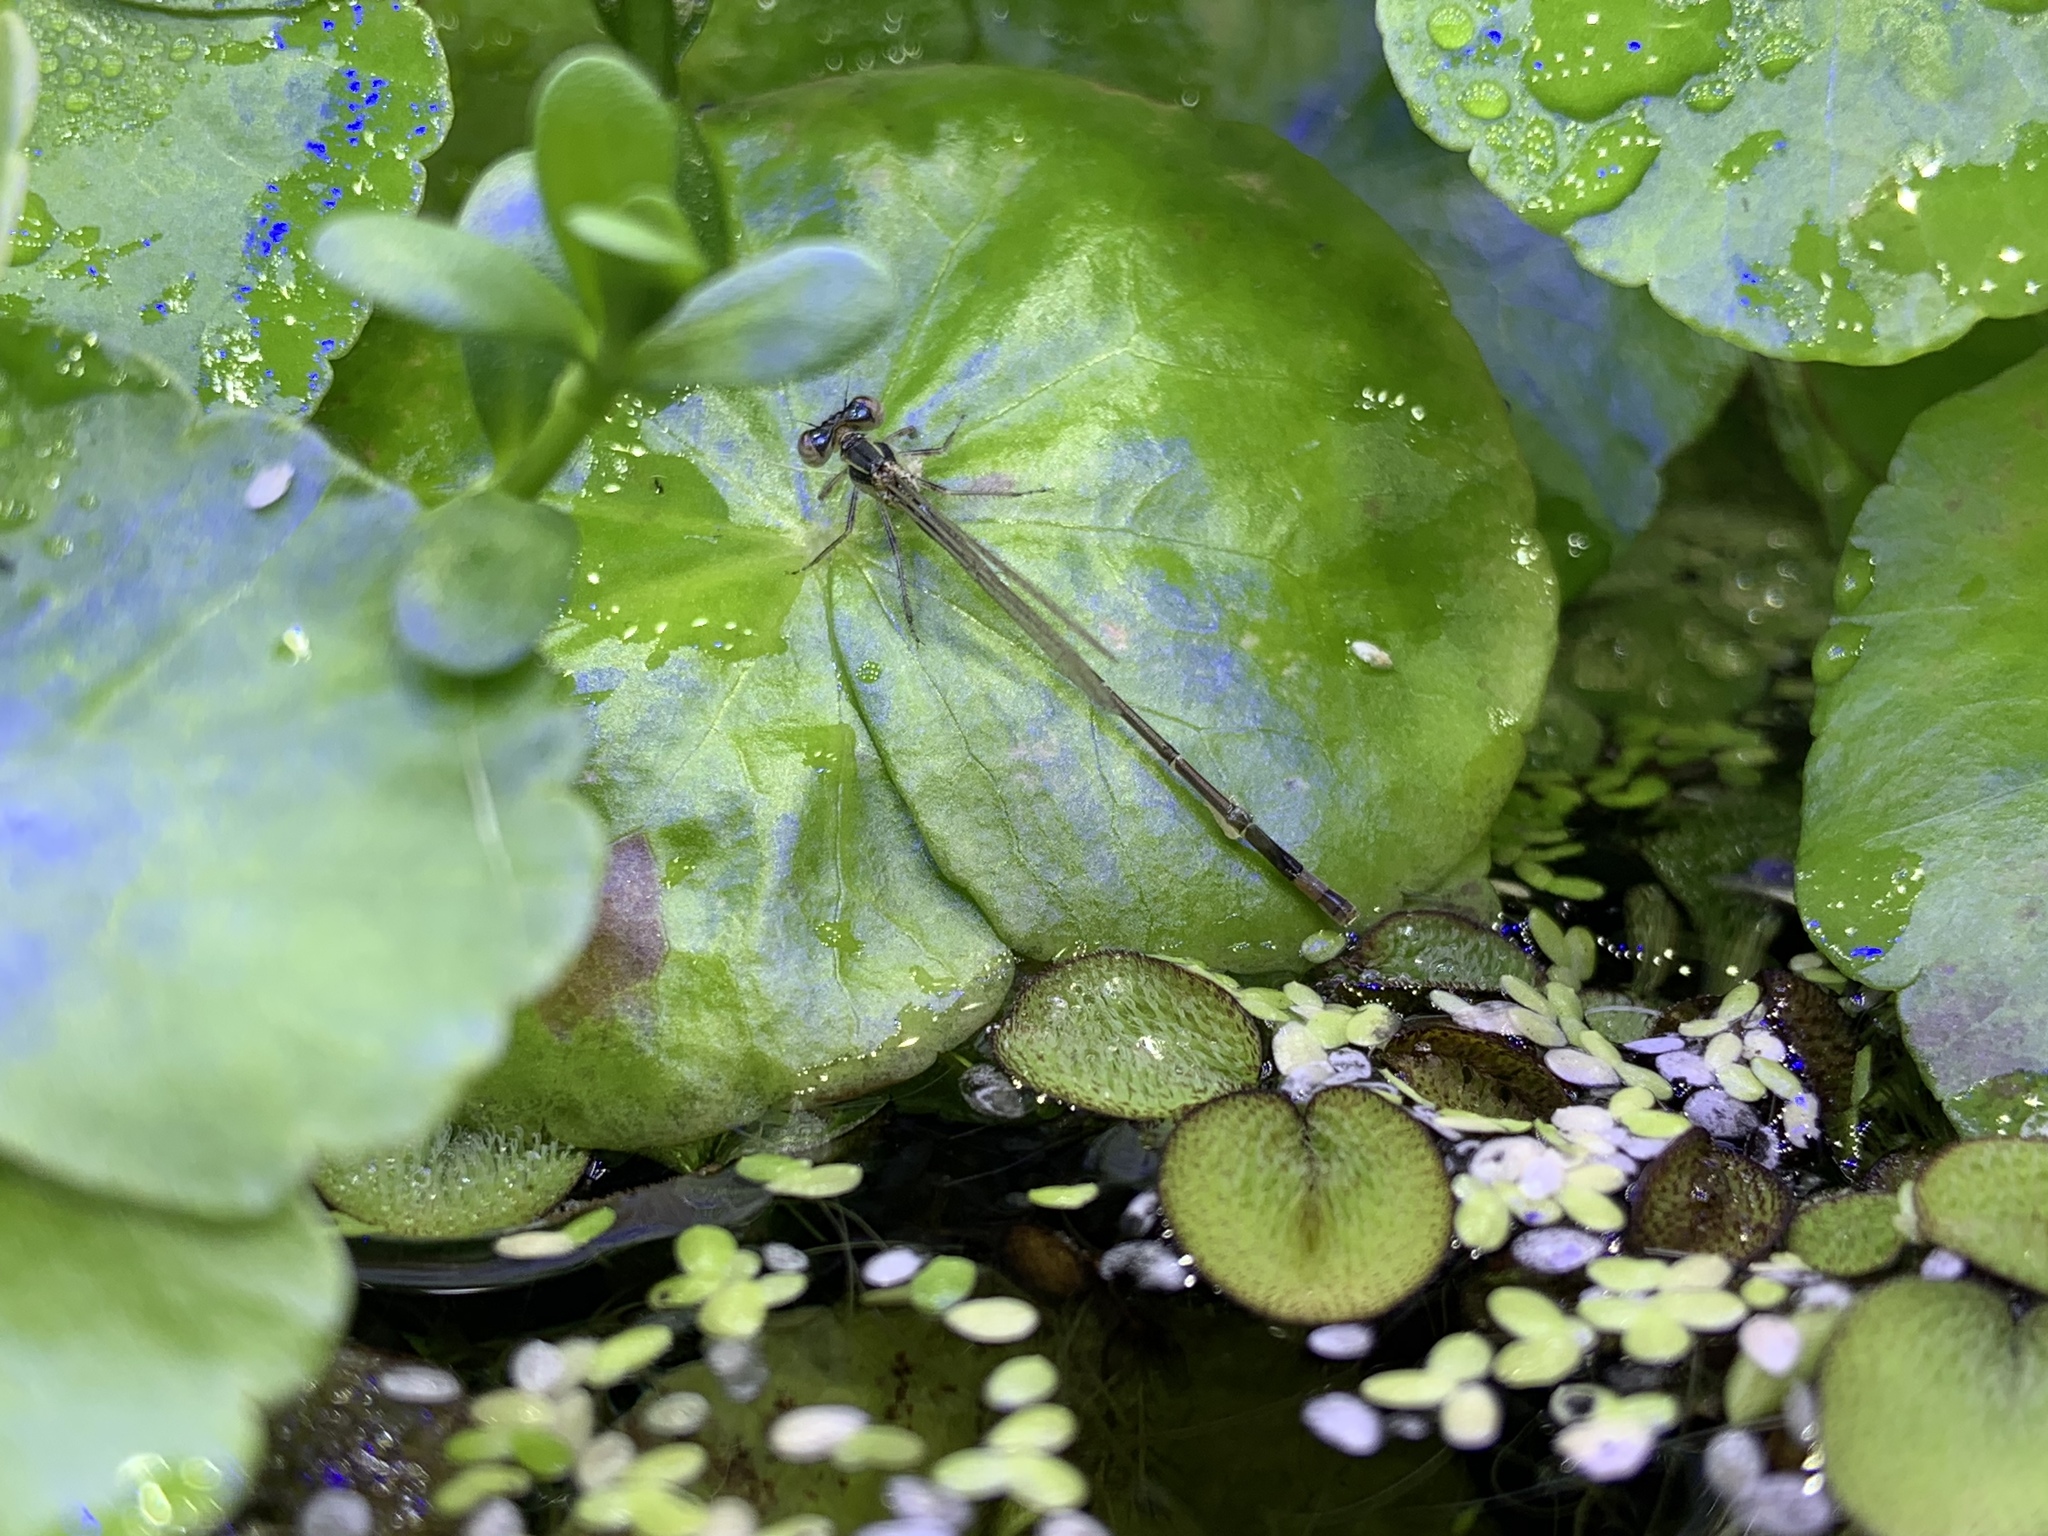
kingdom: Animalia
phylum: Arthropoda
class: Insecta
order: Odonata
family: Coenagrionidae
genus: Ischnura
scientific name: Ischnura ramburii
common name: Rambur's forktail
